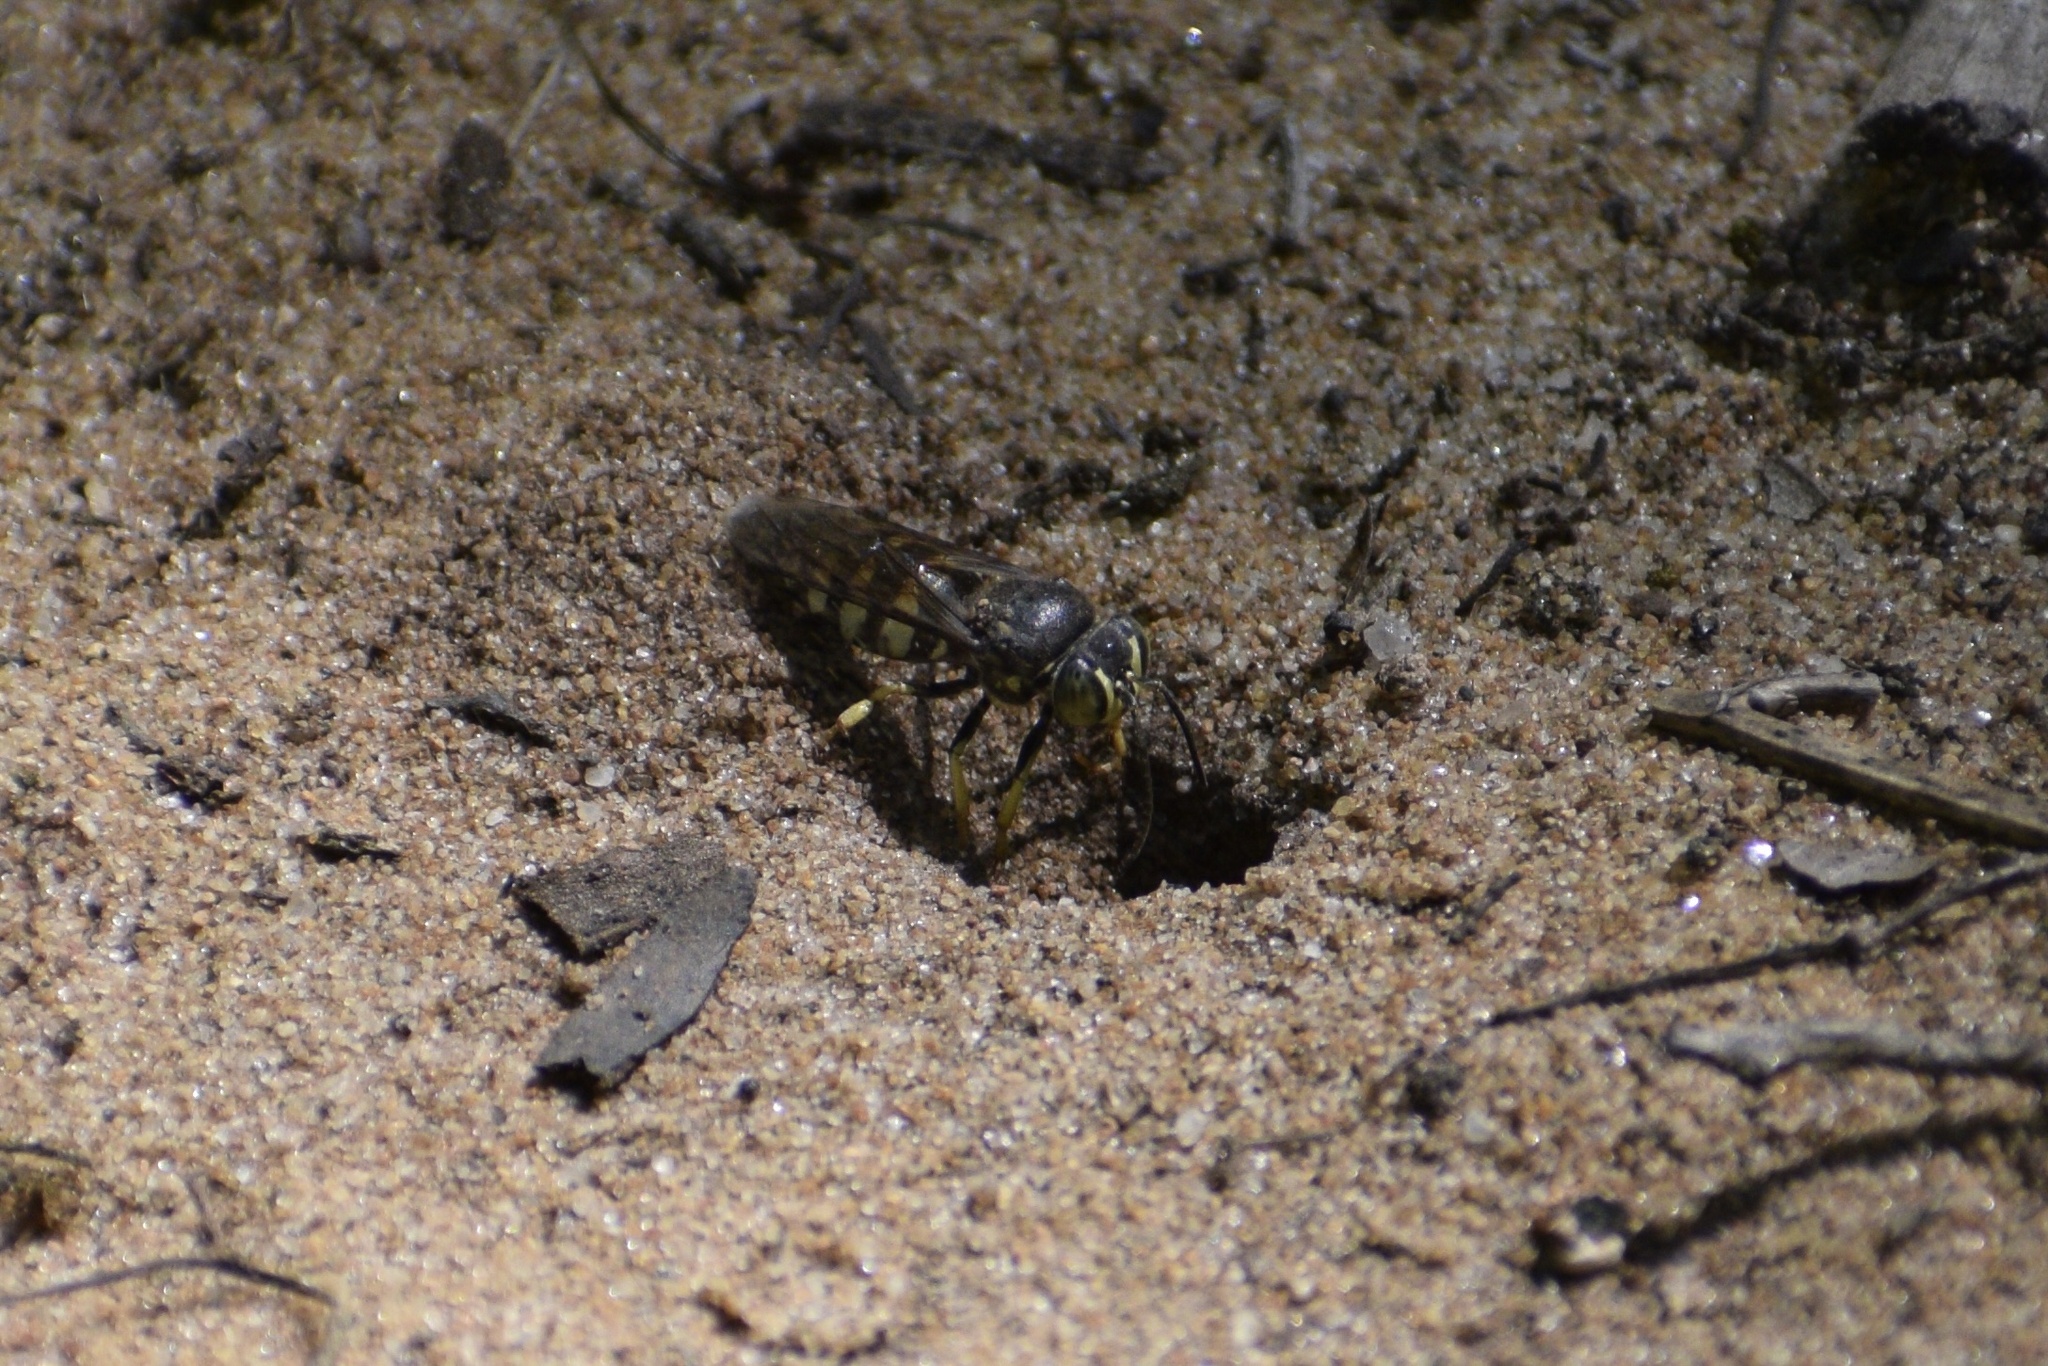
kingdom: Animalia
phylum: Arthropoda
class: Insecta
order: Hymenoptera
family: Crabronidae
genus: Bicyrtes
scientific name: Bicyrtes quadrifasciatus
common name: Four-banded stink bug hunter wasp
